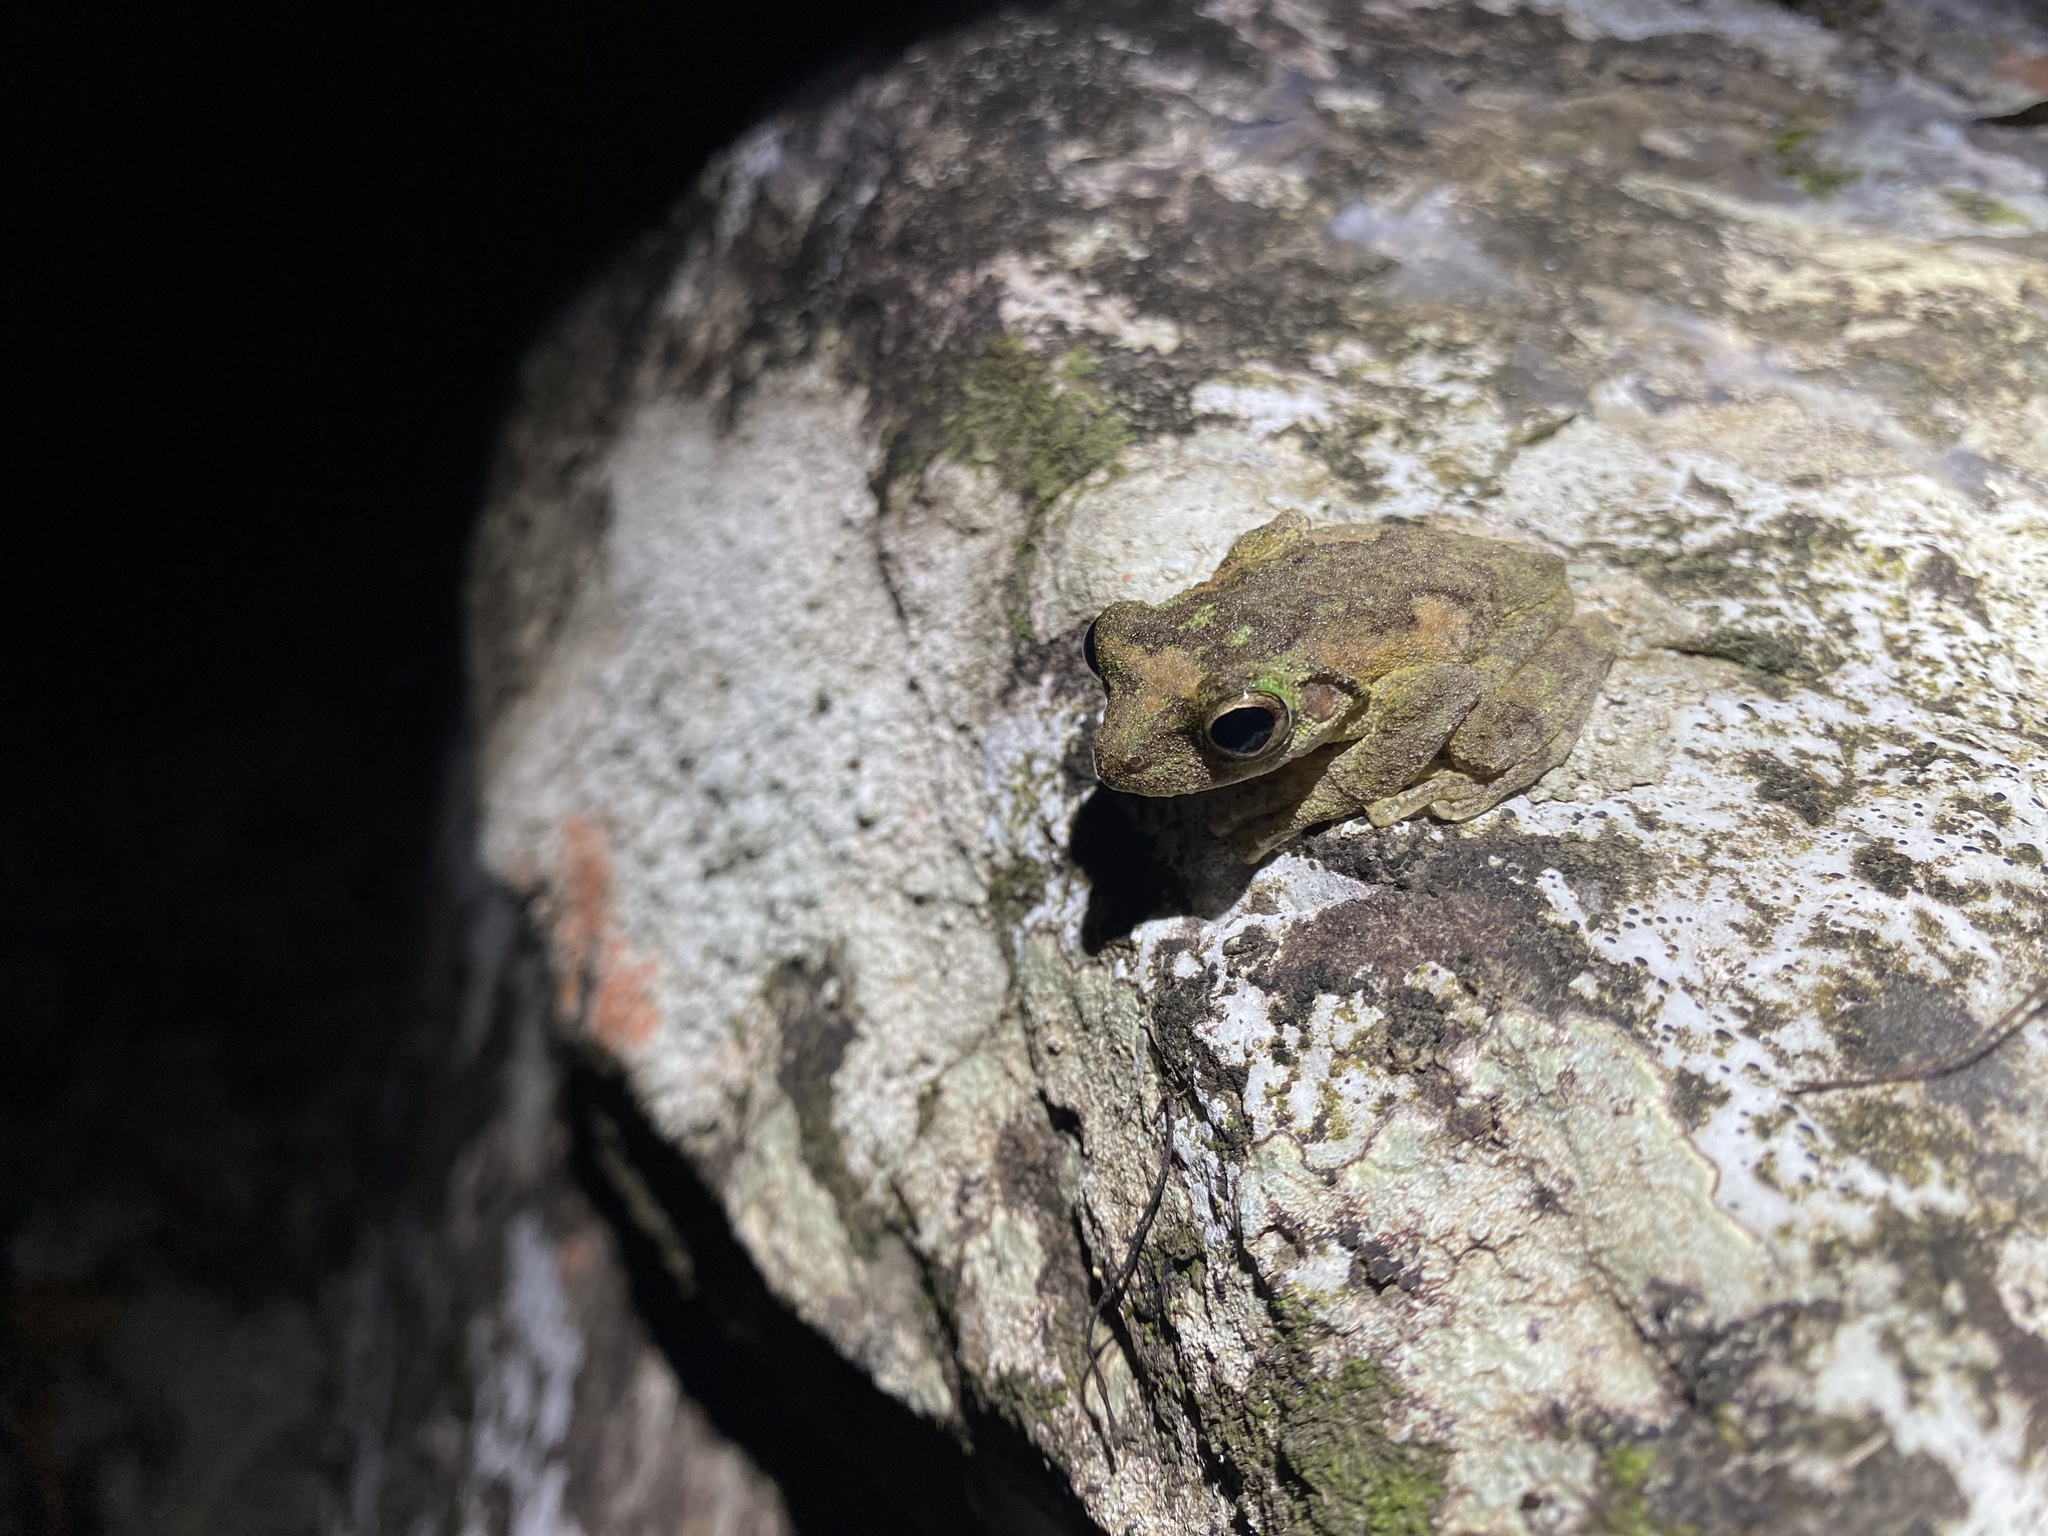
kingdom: Animalia
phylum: Chordata
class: Amphibia
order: Anura
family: Pelodryadidae
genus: Ranoidea
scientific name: Ranoidea myola
